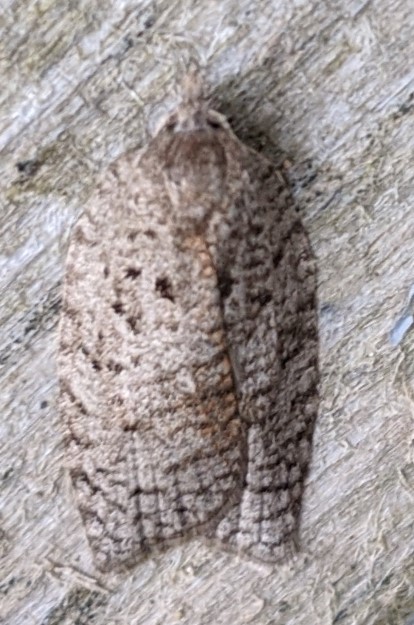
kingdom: Animalia
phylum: Arthropoda
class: Insecta
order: Lepidoptera
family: Tortricidae
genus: Amorbia
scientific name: Amorbia humerosana
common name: White-lined leafroller moth
